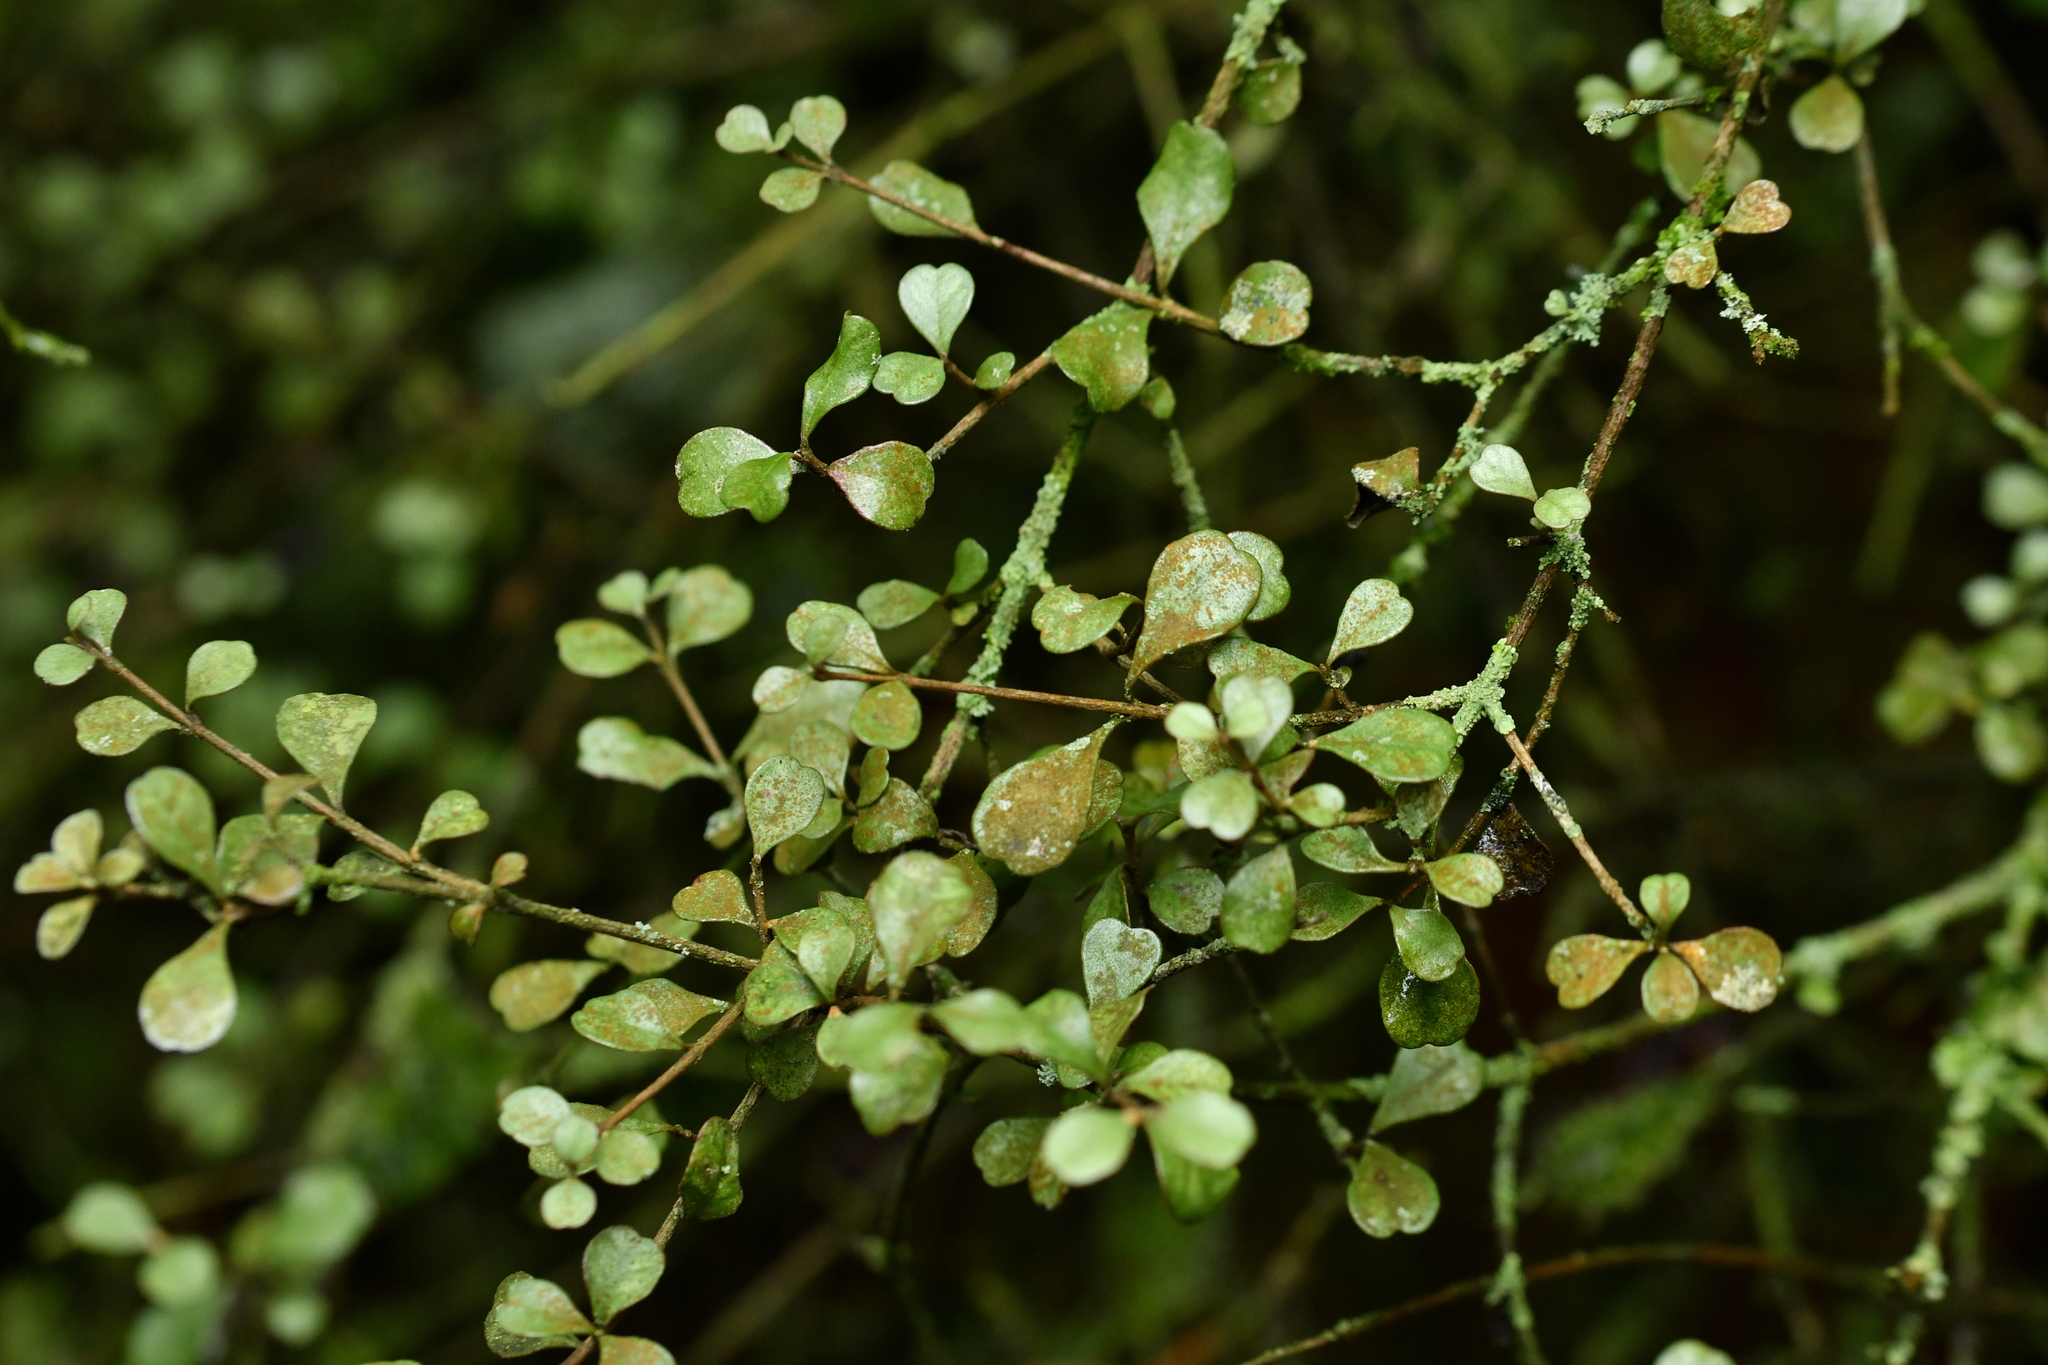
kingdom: Plantae
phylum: Tracheophyta
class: Magnoliopsida
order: Myrtales
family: Myrtaceae
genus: Lophomyrtus
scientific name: Lophomyrtus obcordata
